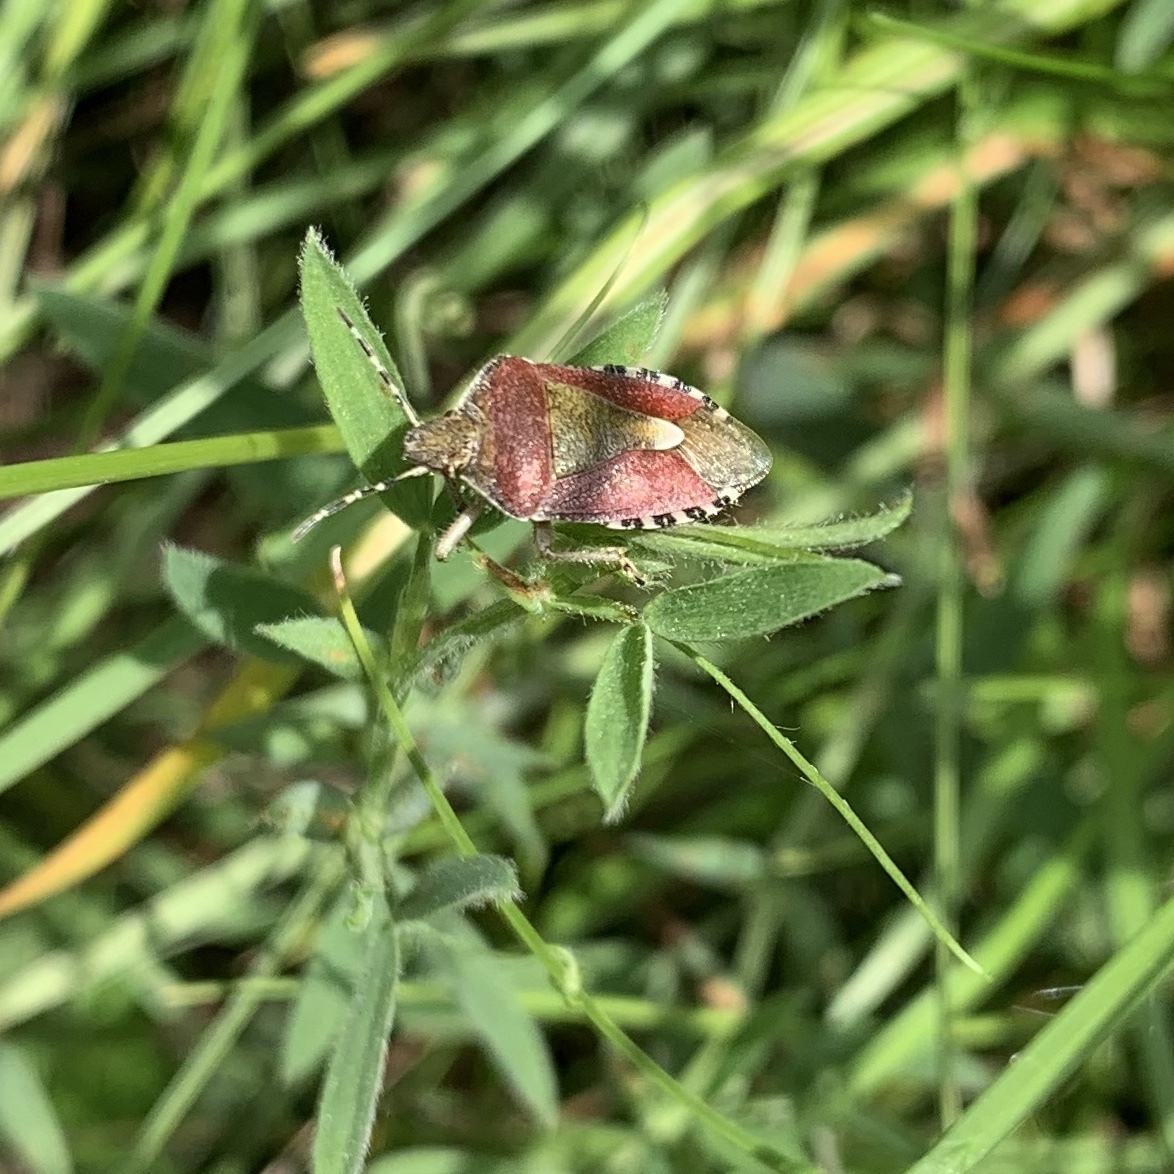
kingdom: Animalia
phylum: Arthropoda
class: Insecta
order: Hemiptera
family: Pentatomidae
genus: Dolycoris
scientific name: Dolycoris baccarum
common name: Sloe bug
